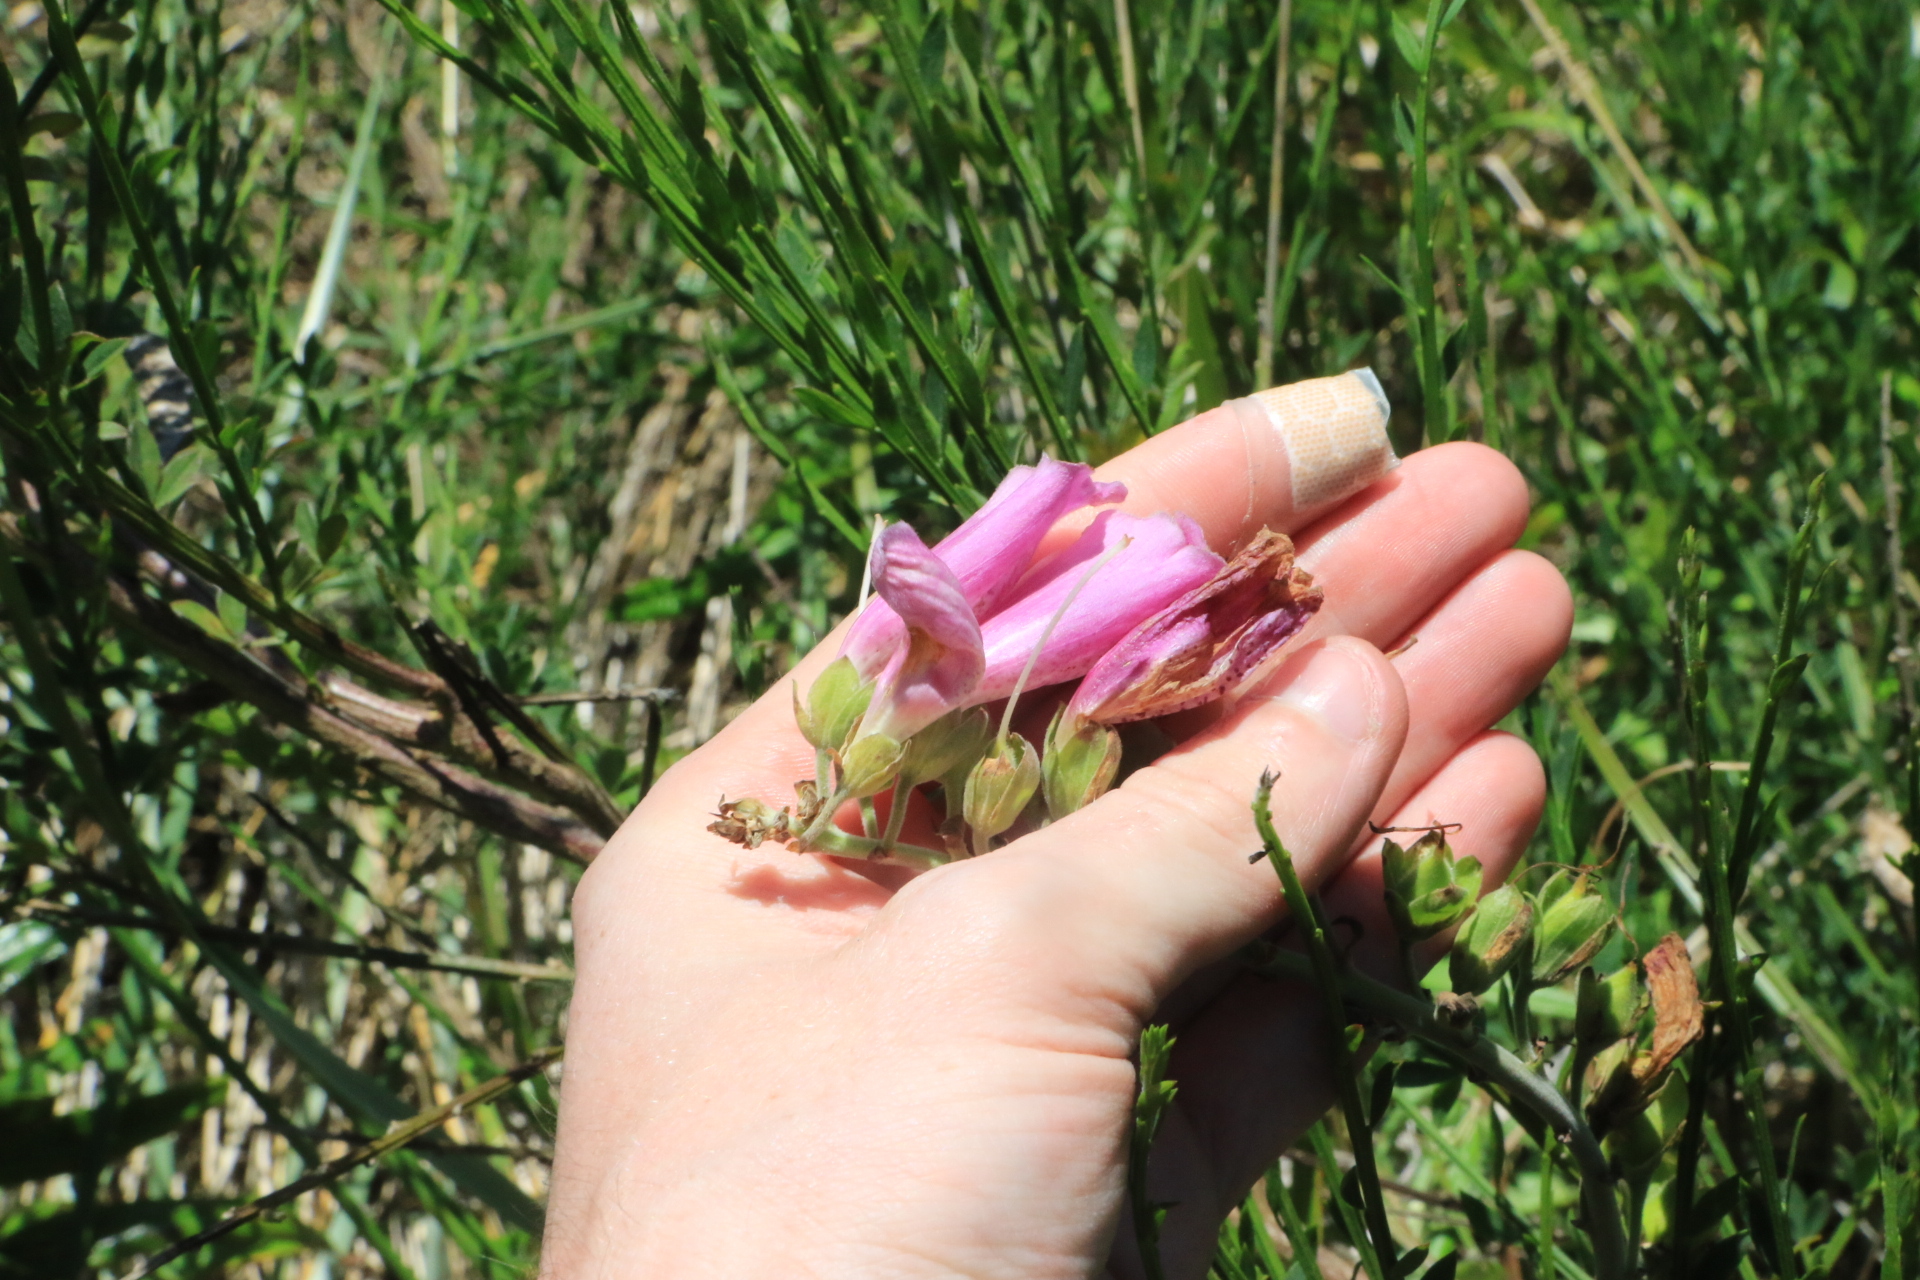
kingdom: Plantae
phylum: Tracheophyta
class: Magnoliopsida
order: Lamiales
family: Plantaginaceae
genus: Digitalis
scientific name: Digitalis purpurea
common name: Foxglove
